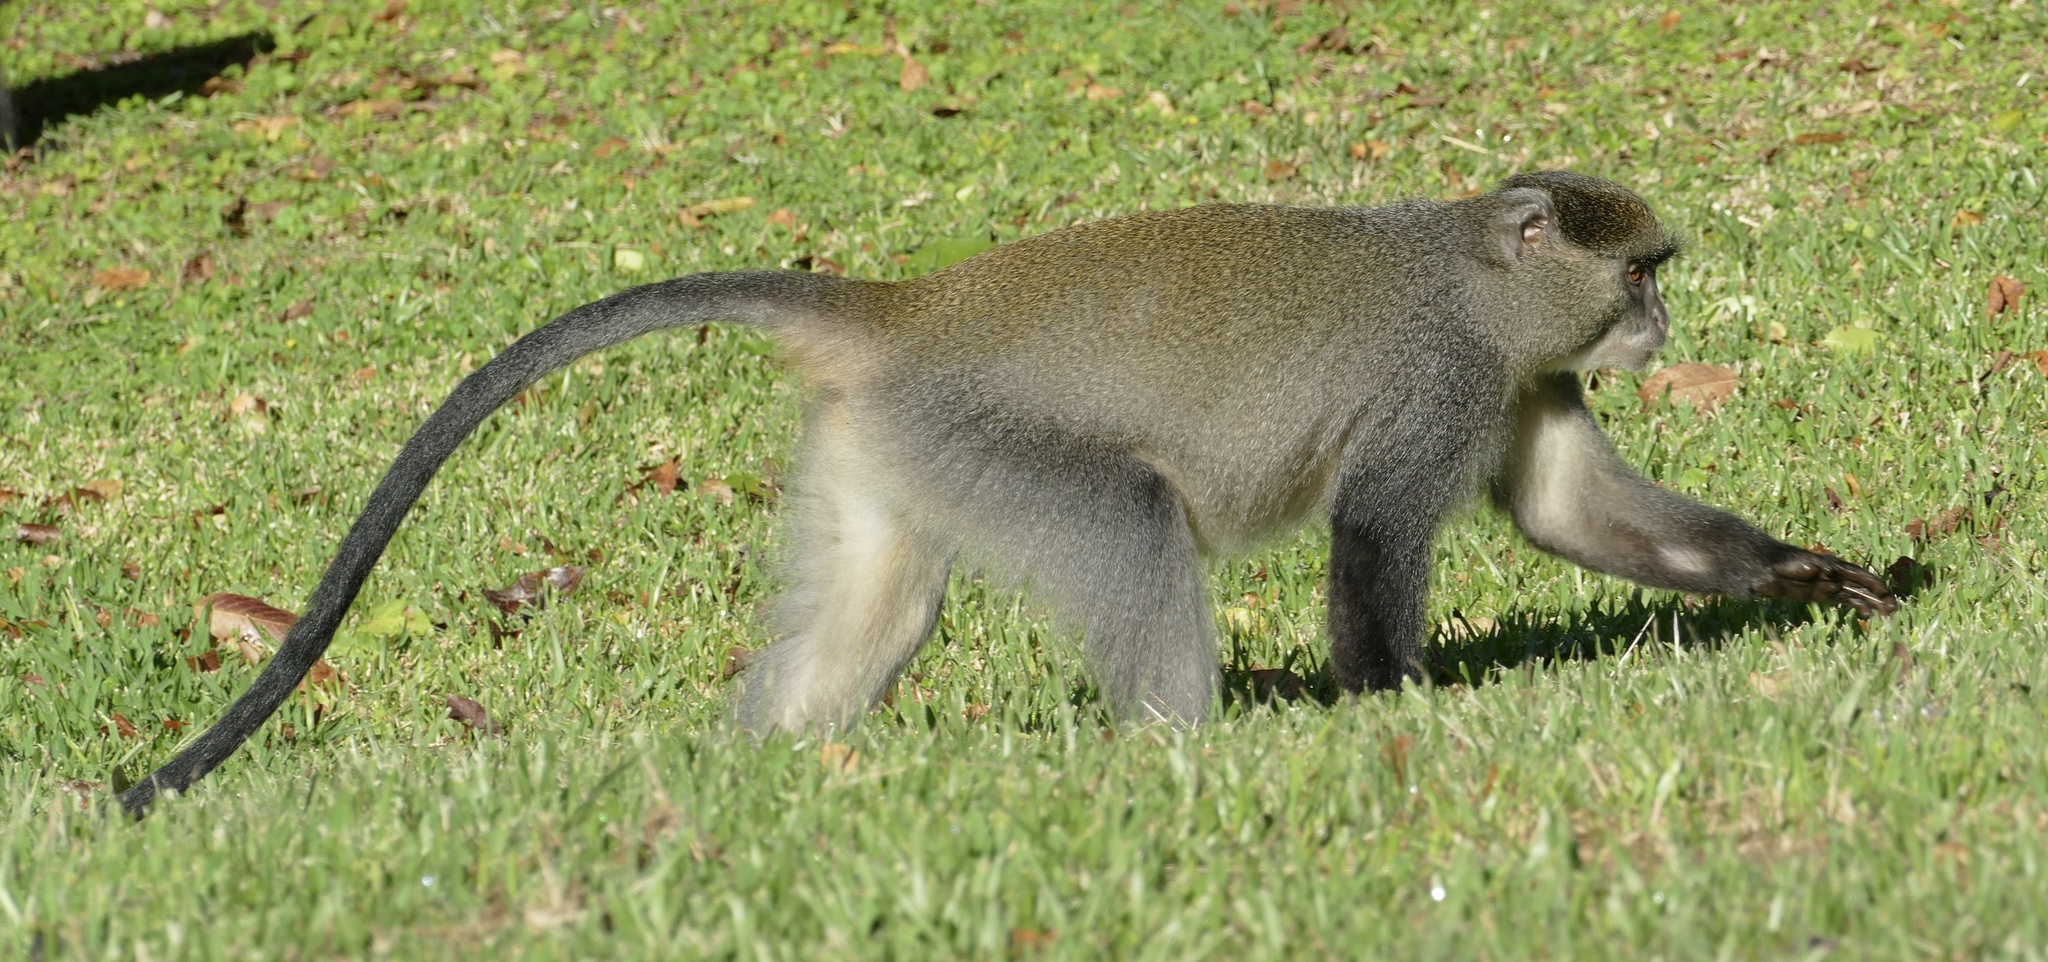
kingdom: Animalia
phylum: Chordata
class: Mammalia
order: Primates
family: Cercopithecidae
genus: Cercopithecus
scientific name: Cercopithecus mitis
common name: Blue monkey
